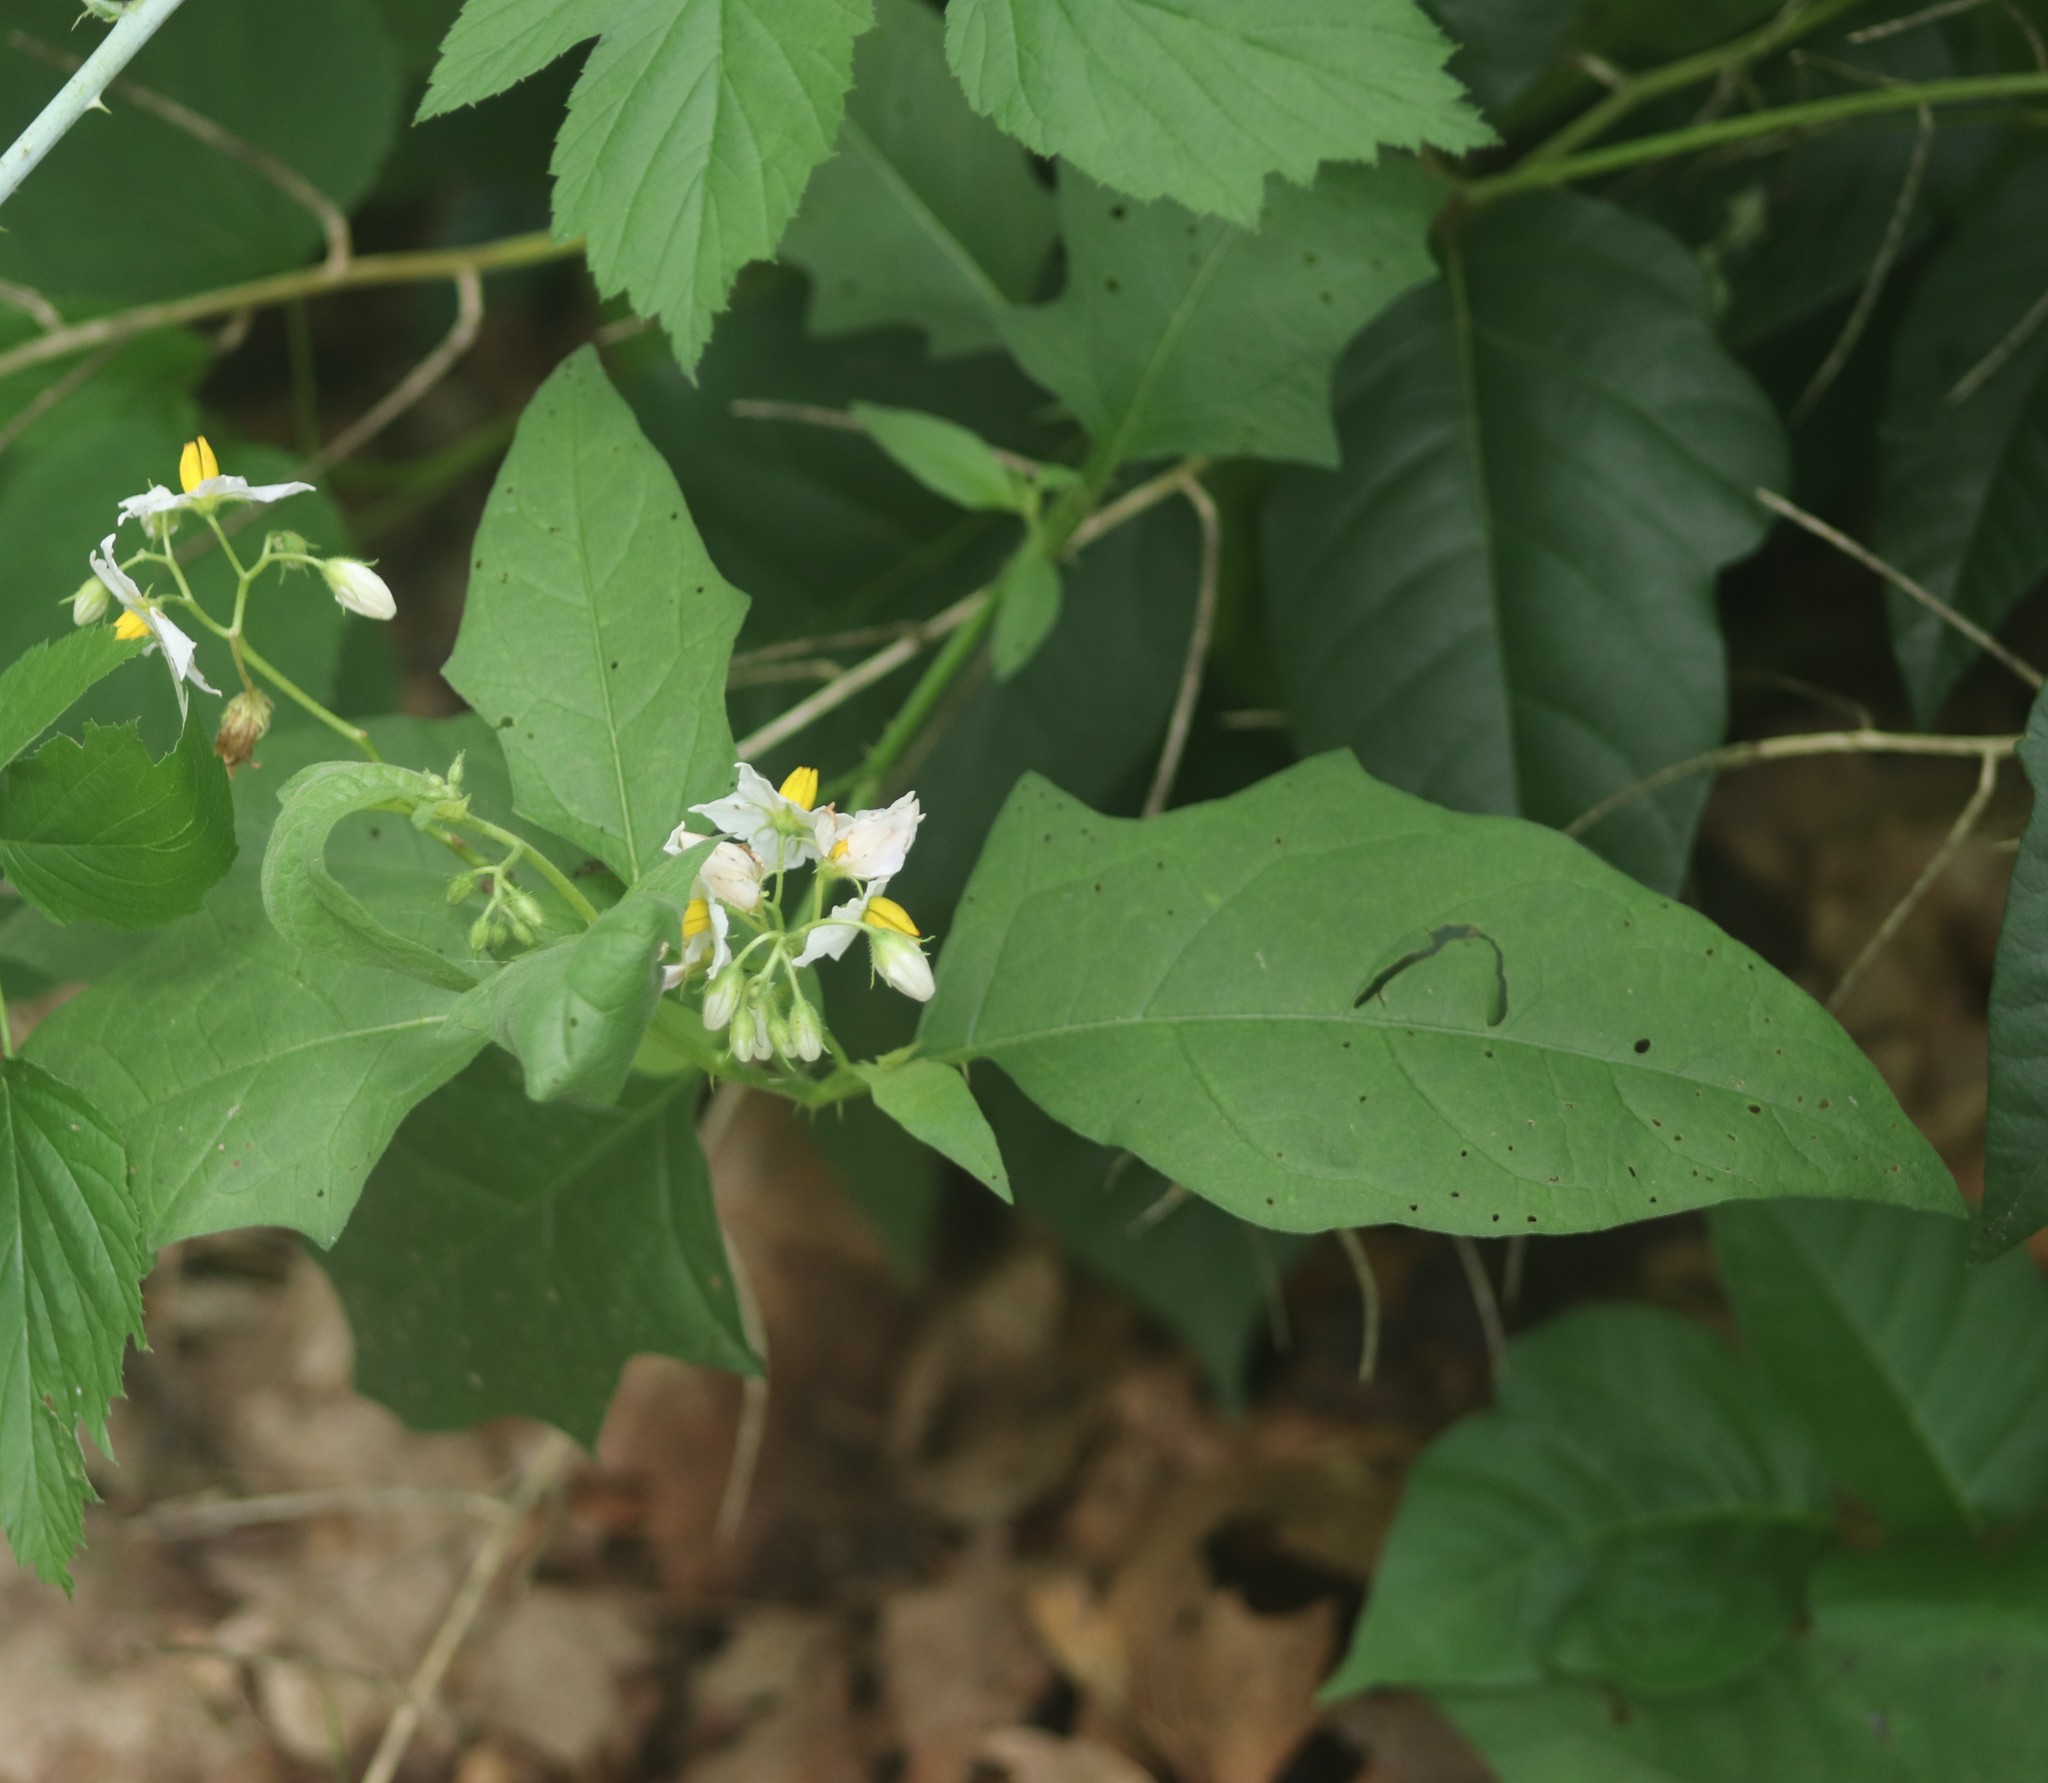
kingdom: Plantae
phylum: Tracheophyta
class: Magnoliopsida
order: Solanales
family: Solanaceae
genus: Solanum
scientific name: Solanum carolinense
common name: Horse-nettle
